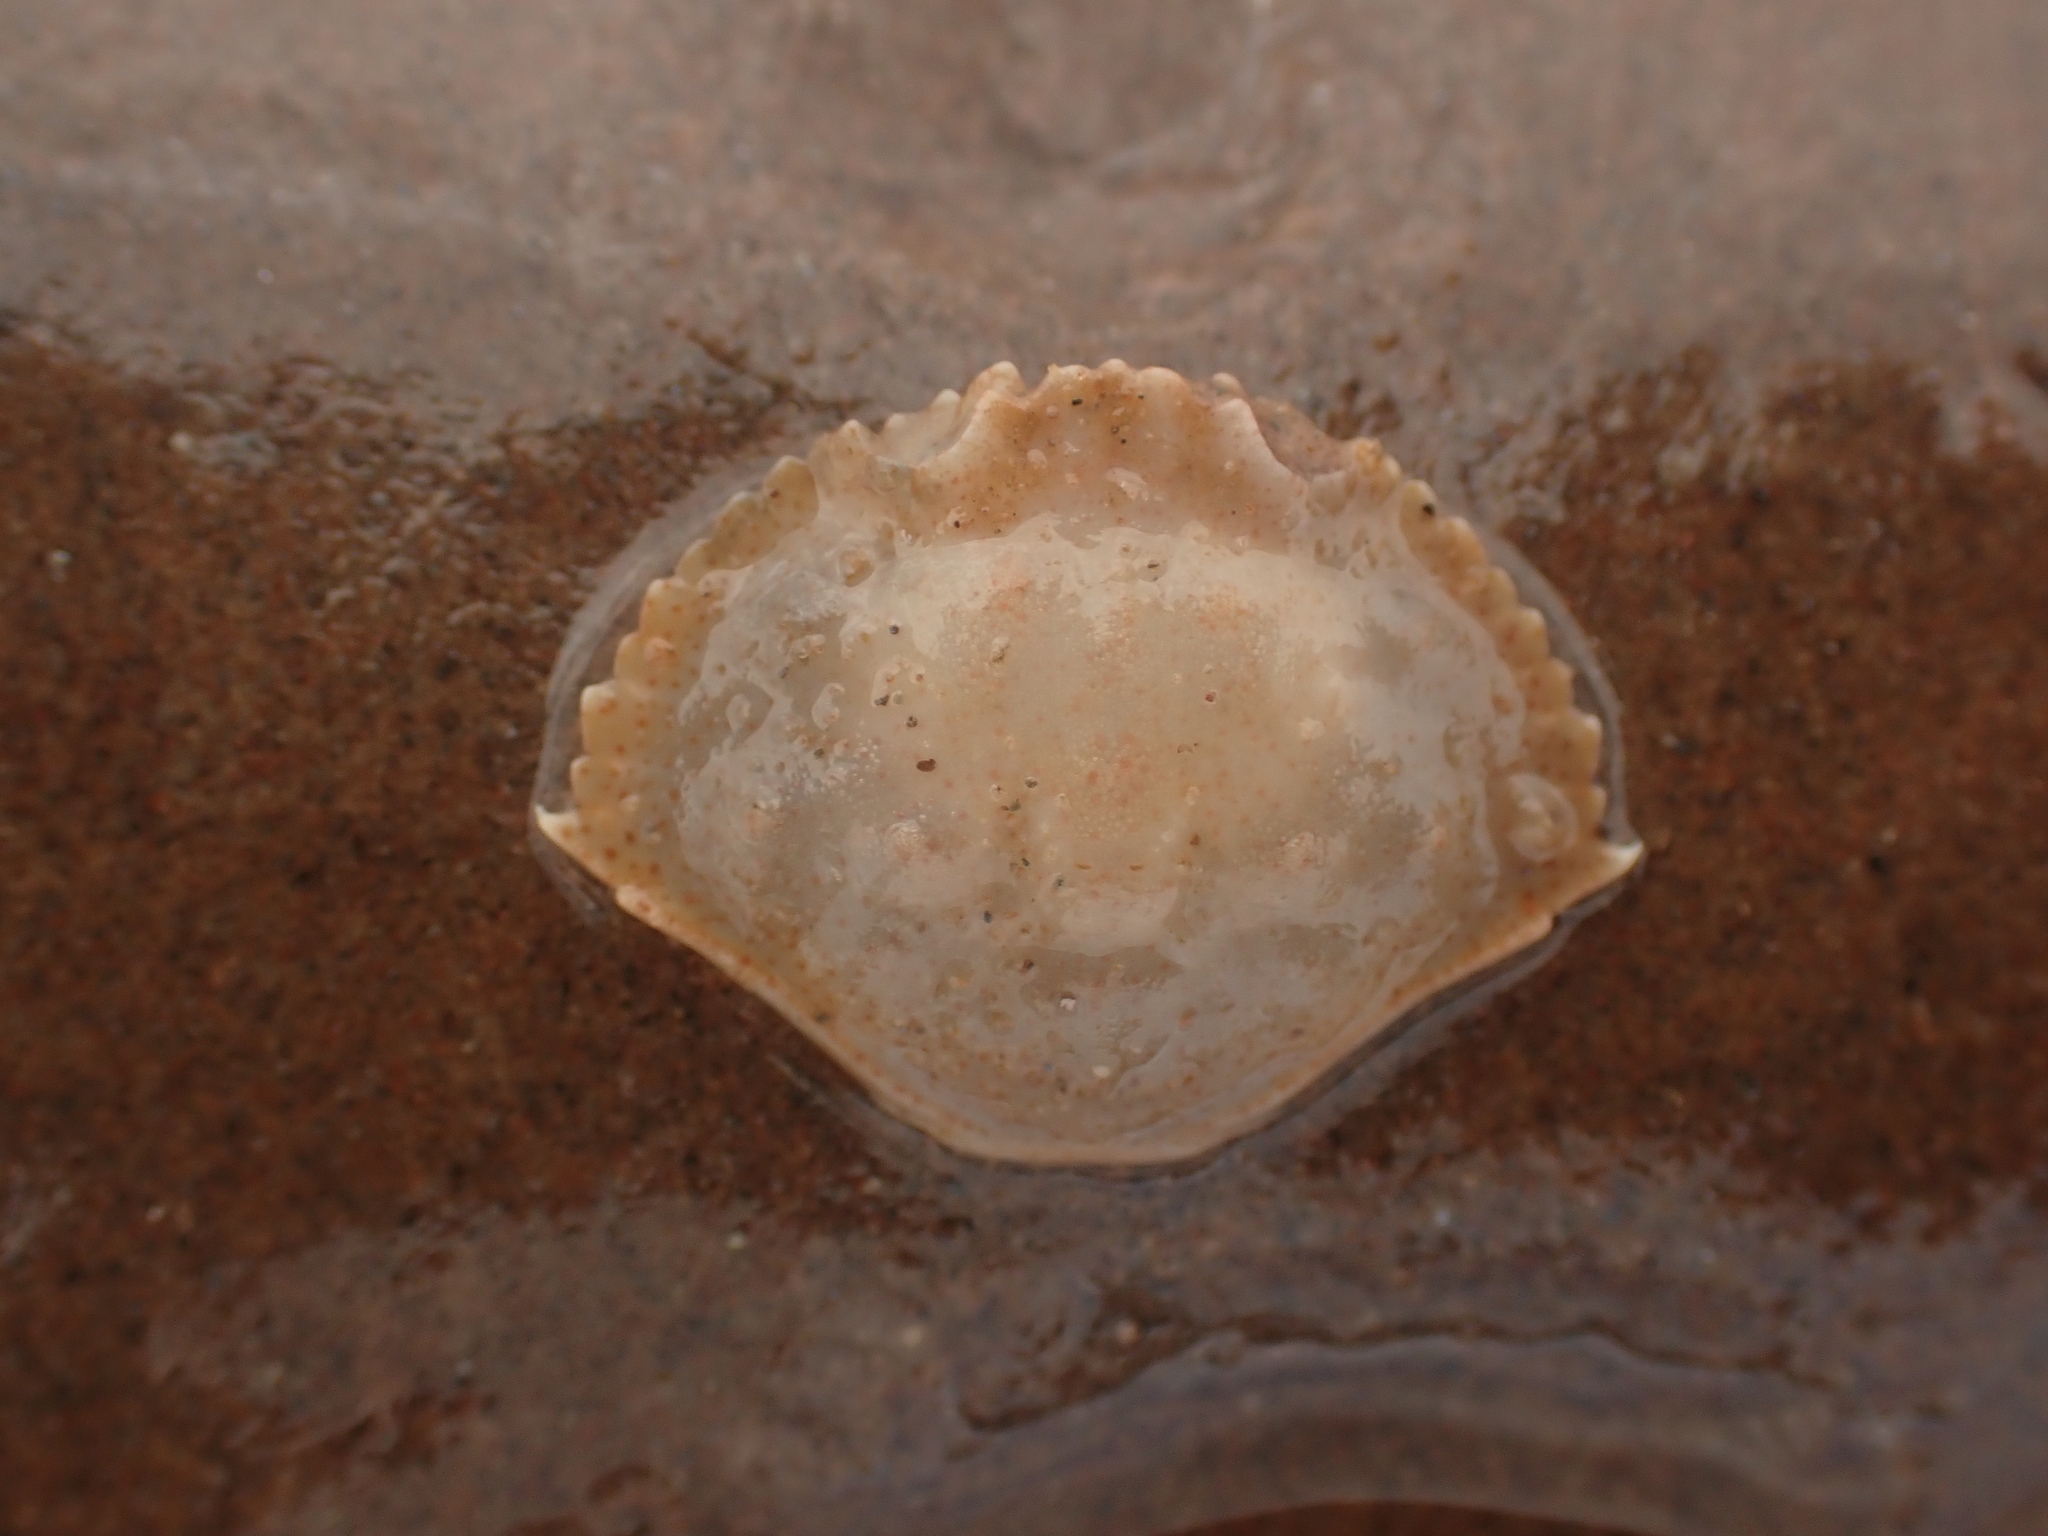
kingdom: Animalia
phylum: Arthropoda
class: Malacostraca
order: Decapoda
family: Cancridae
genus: Cancer
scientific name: Cancer irroratus
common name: Atlantic rock crab
